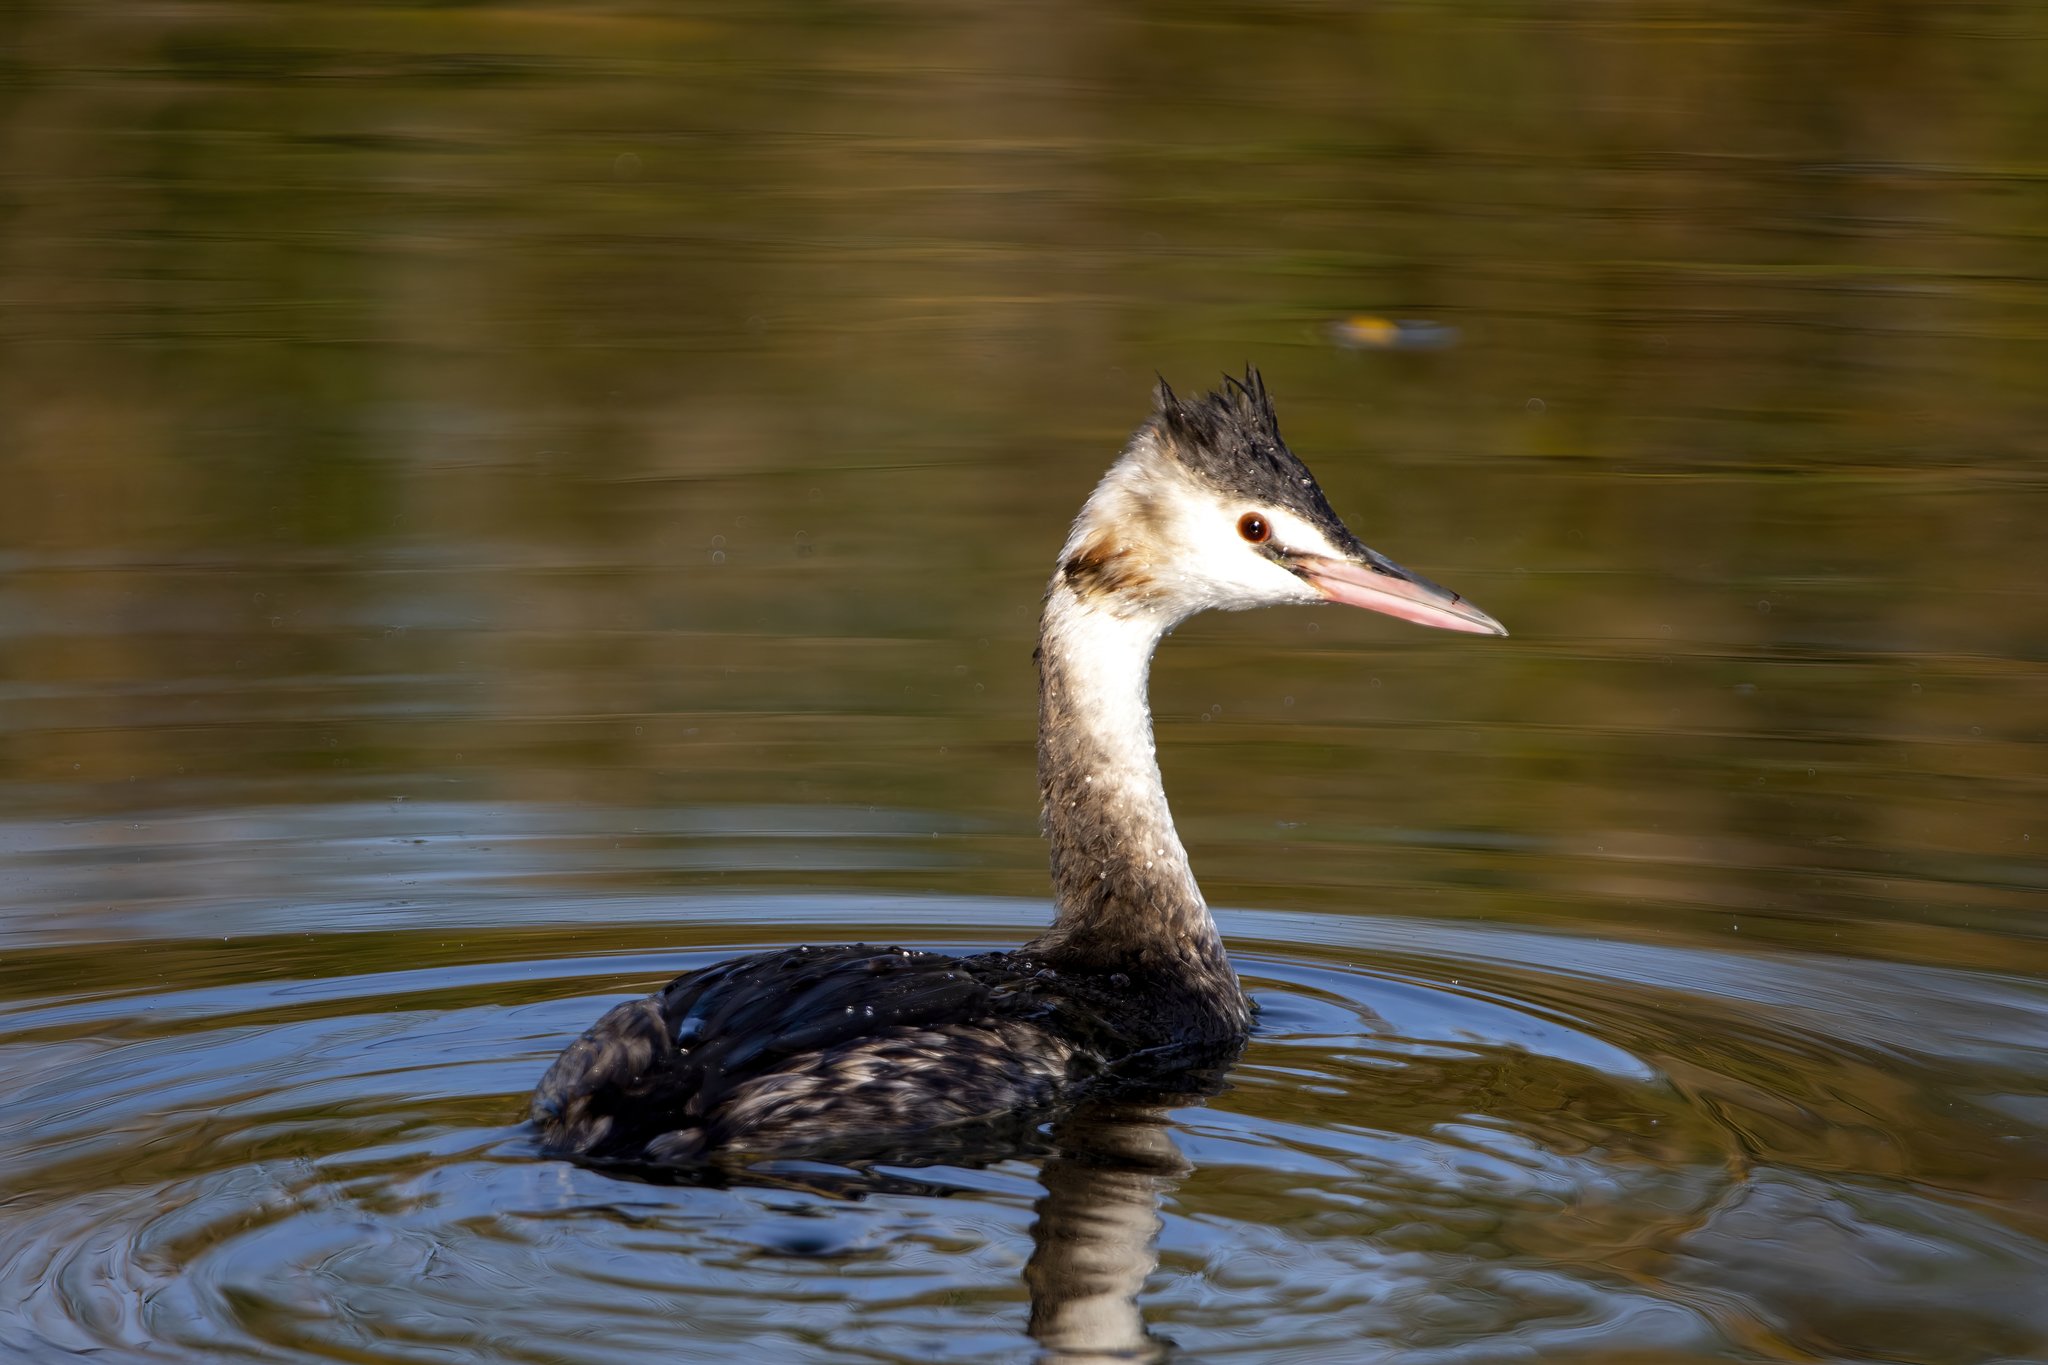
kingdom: Animalia
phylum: Chordata
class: Aves
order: Podicipediformes
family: Podicipedidae
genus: Podiceps
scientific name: Podiceps cristatus
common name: Great crested grebe
